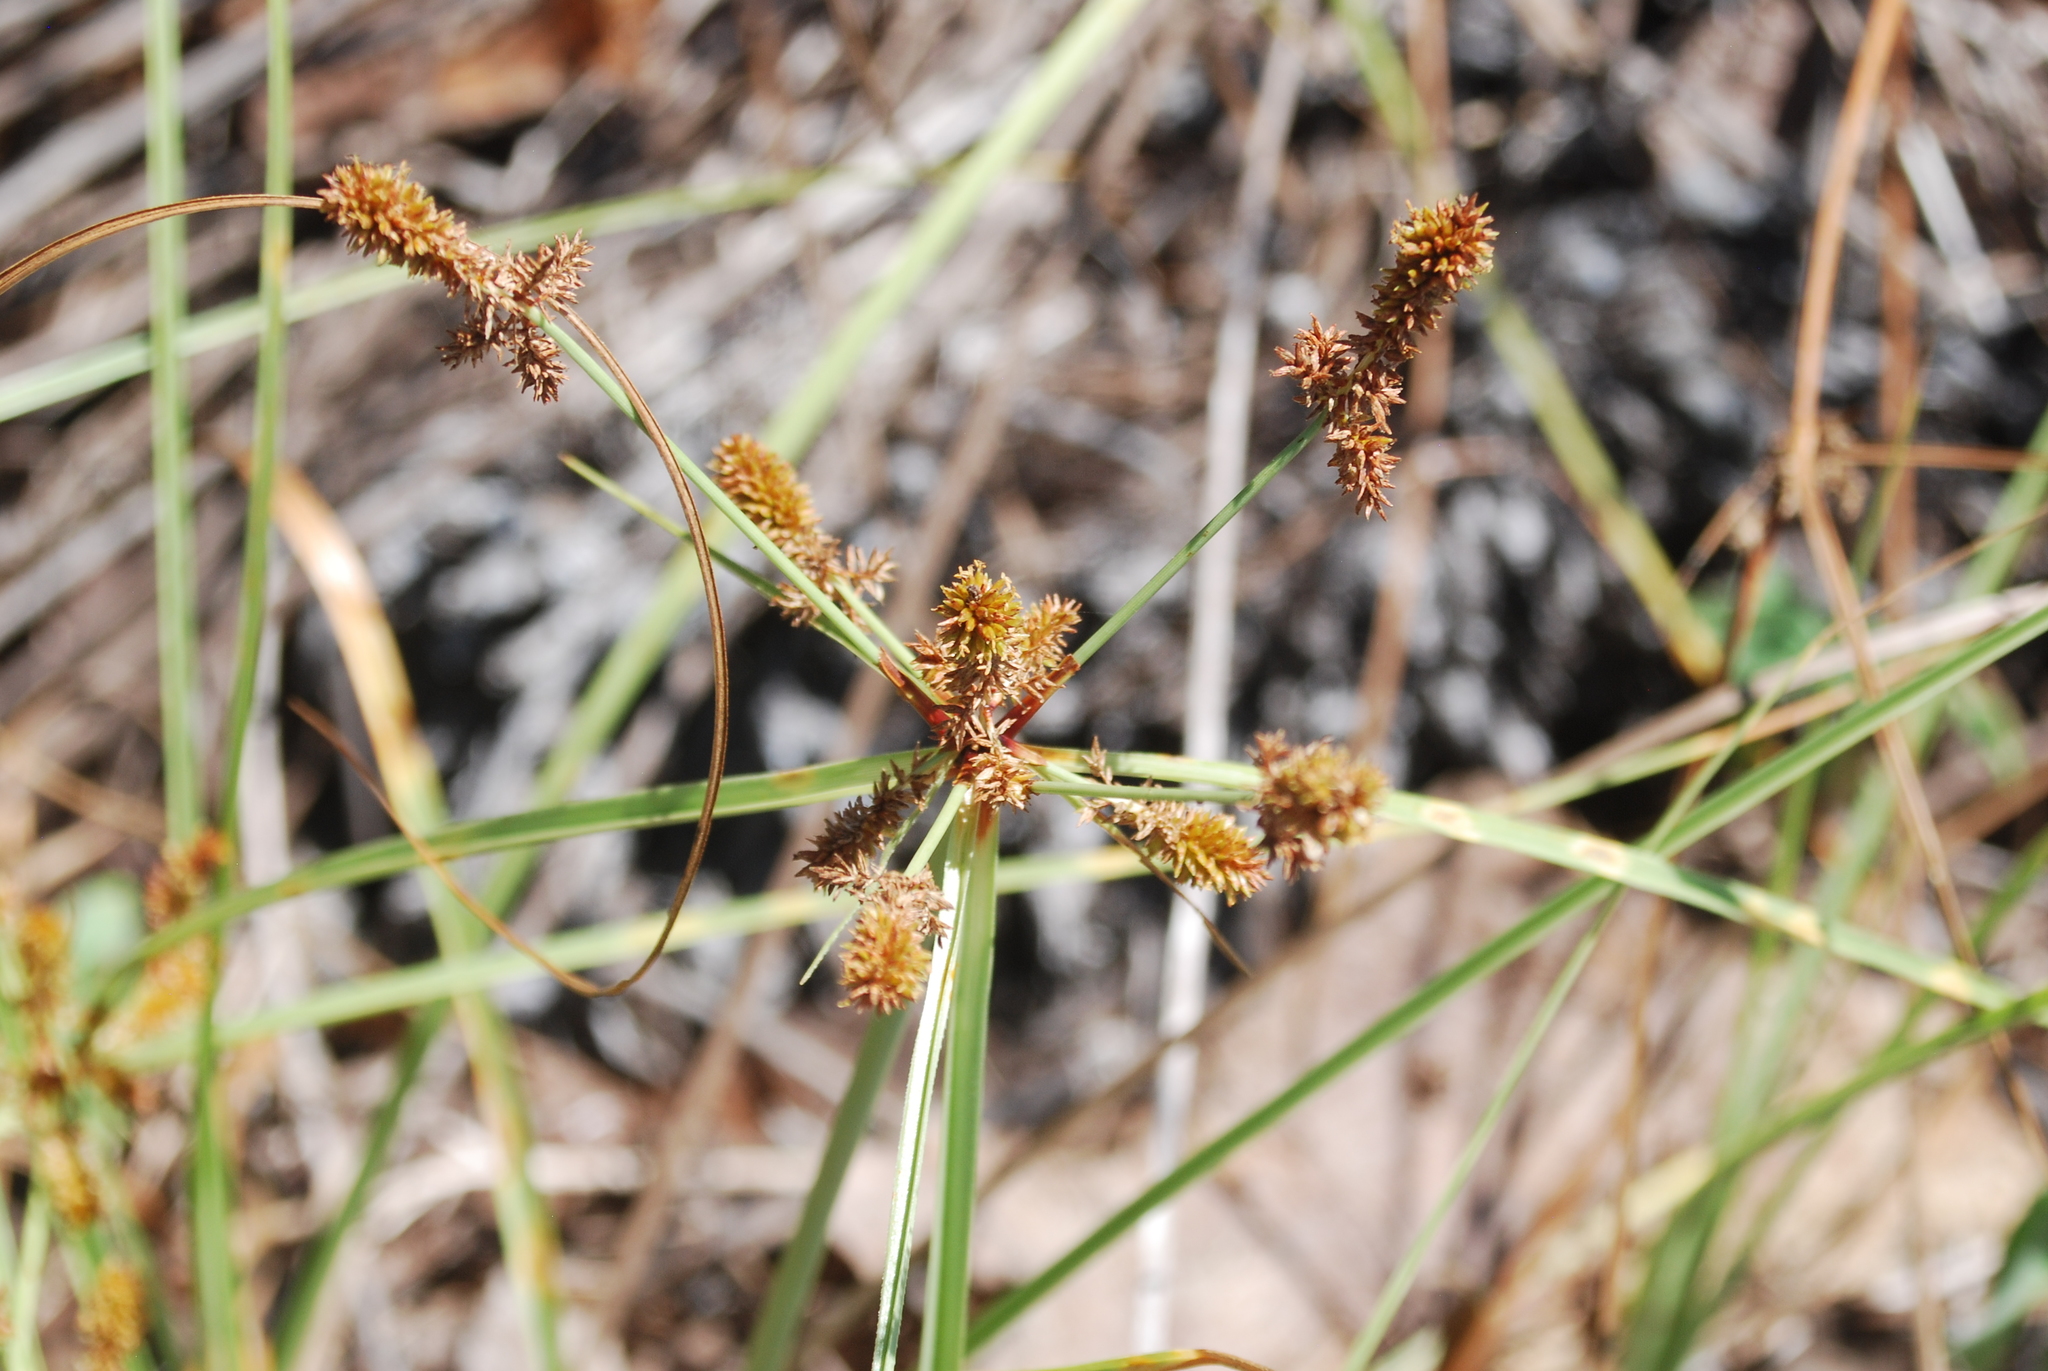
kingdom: Plantae
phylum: Tracheophyta
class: Liliopsida
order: Poales
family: Cyperaceae
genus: Cyperus
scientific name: Cyperus anderssonii
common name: Andersson's sedge
